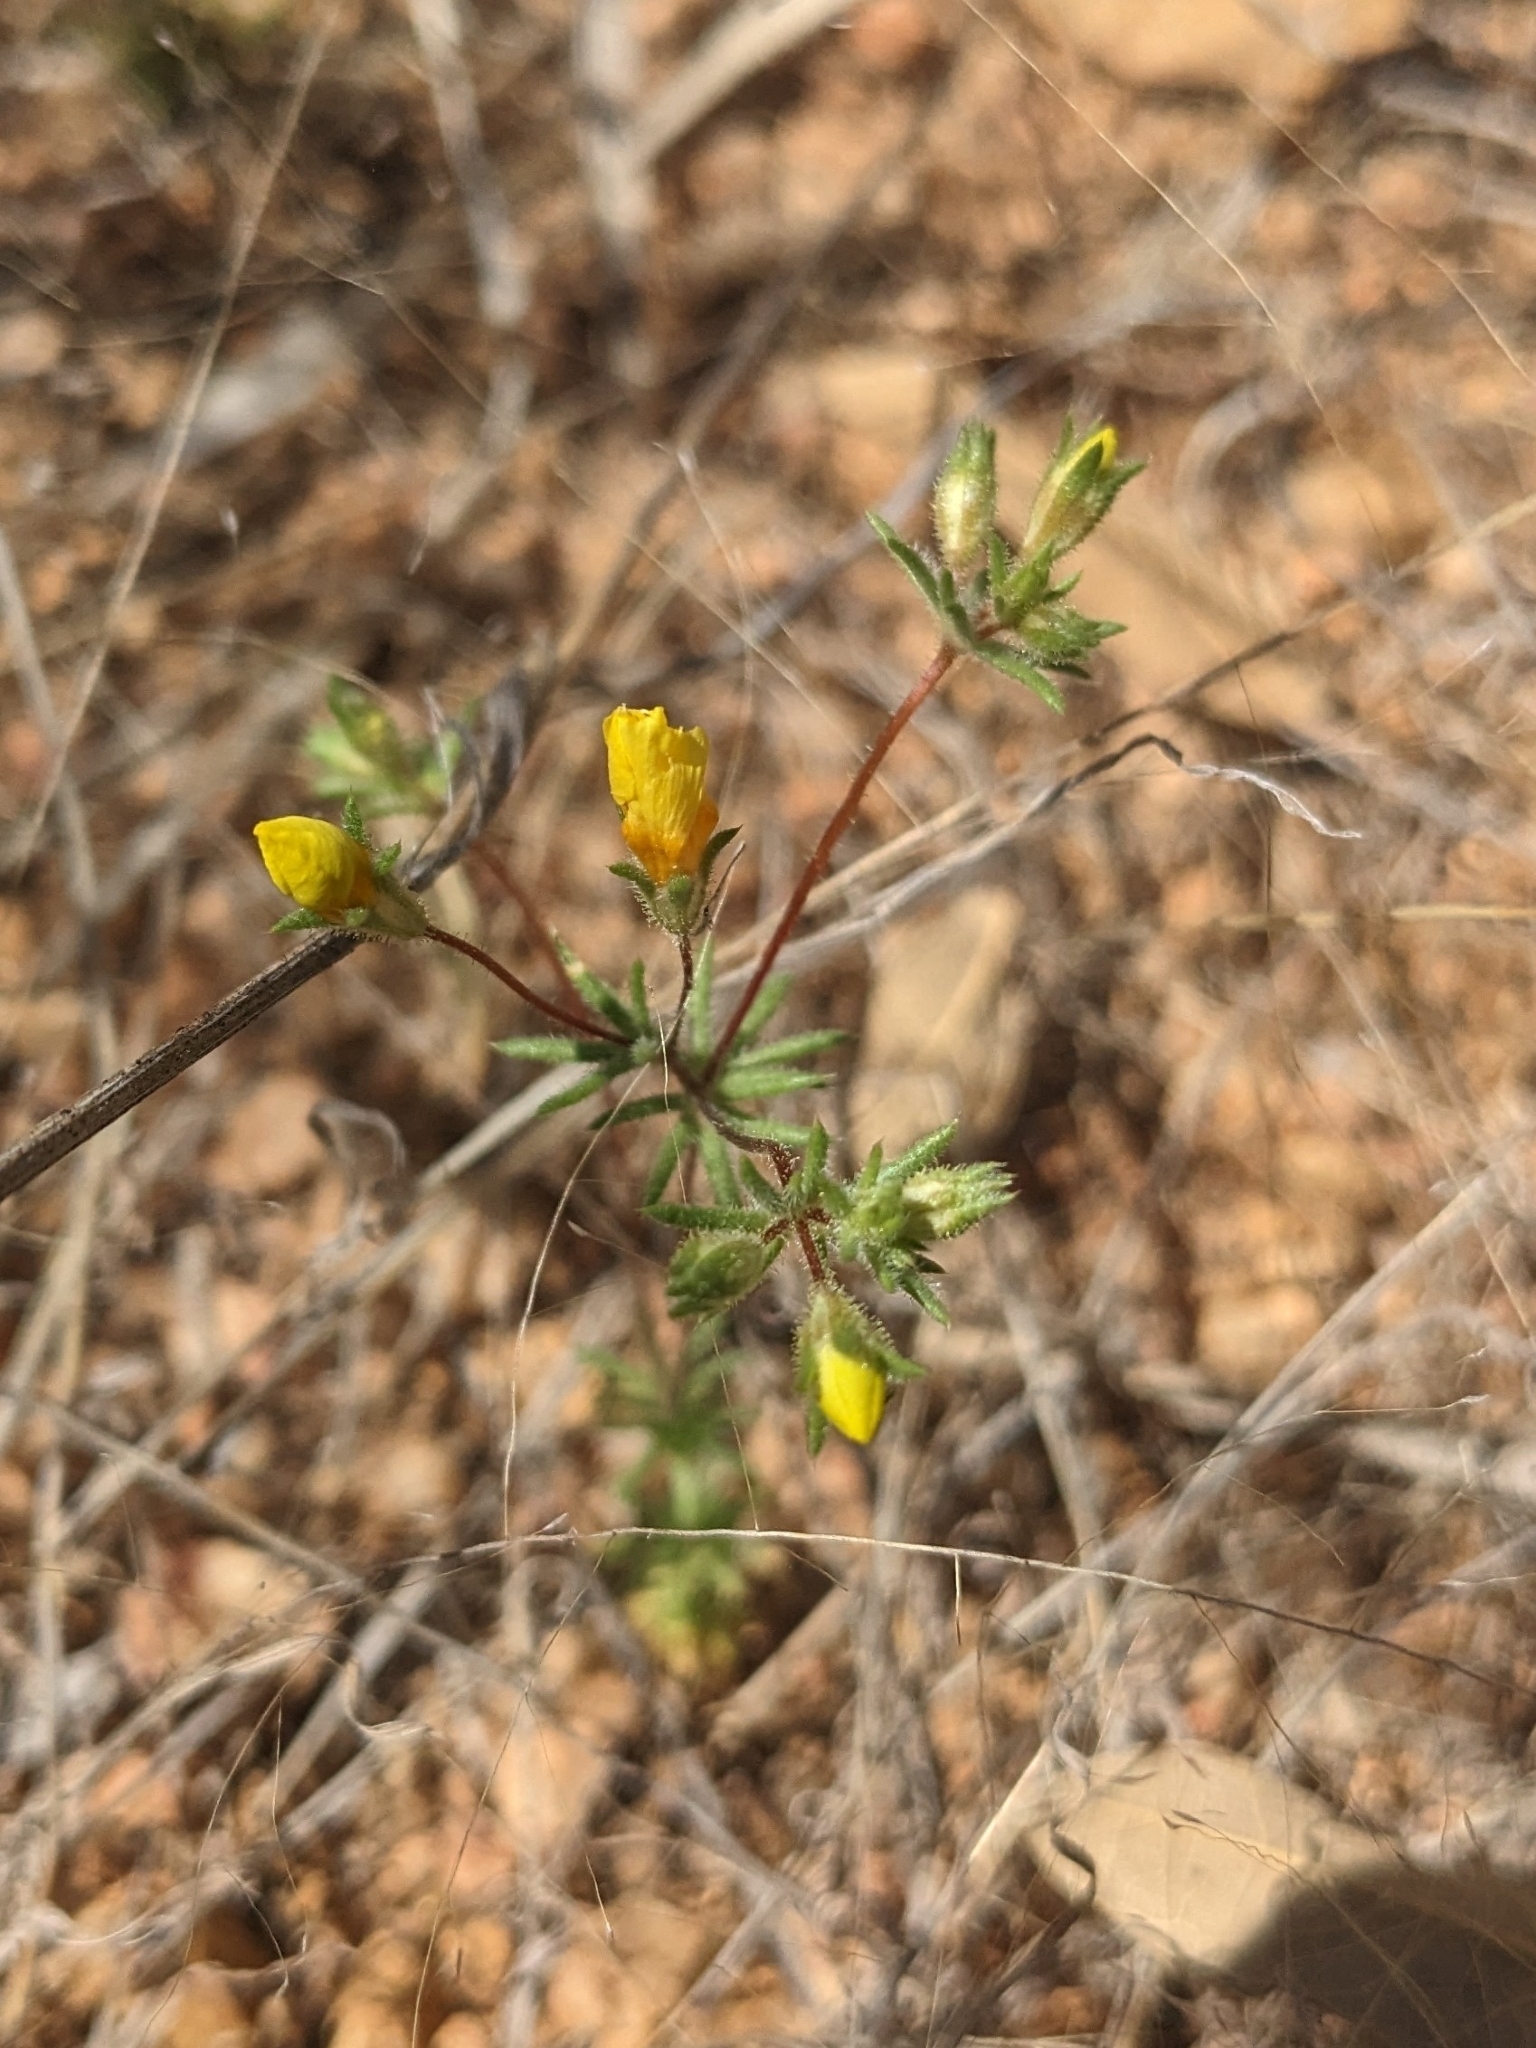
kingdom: Plantae
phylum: Tracheophyta
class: Magnoliopsida
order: Ericales
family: Polemoniaceae
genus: Leptosiphon
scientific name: Leptosiphon chrysanthus
